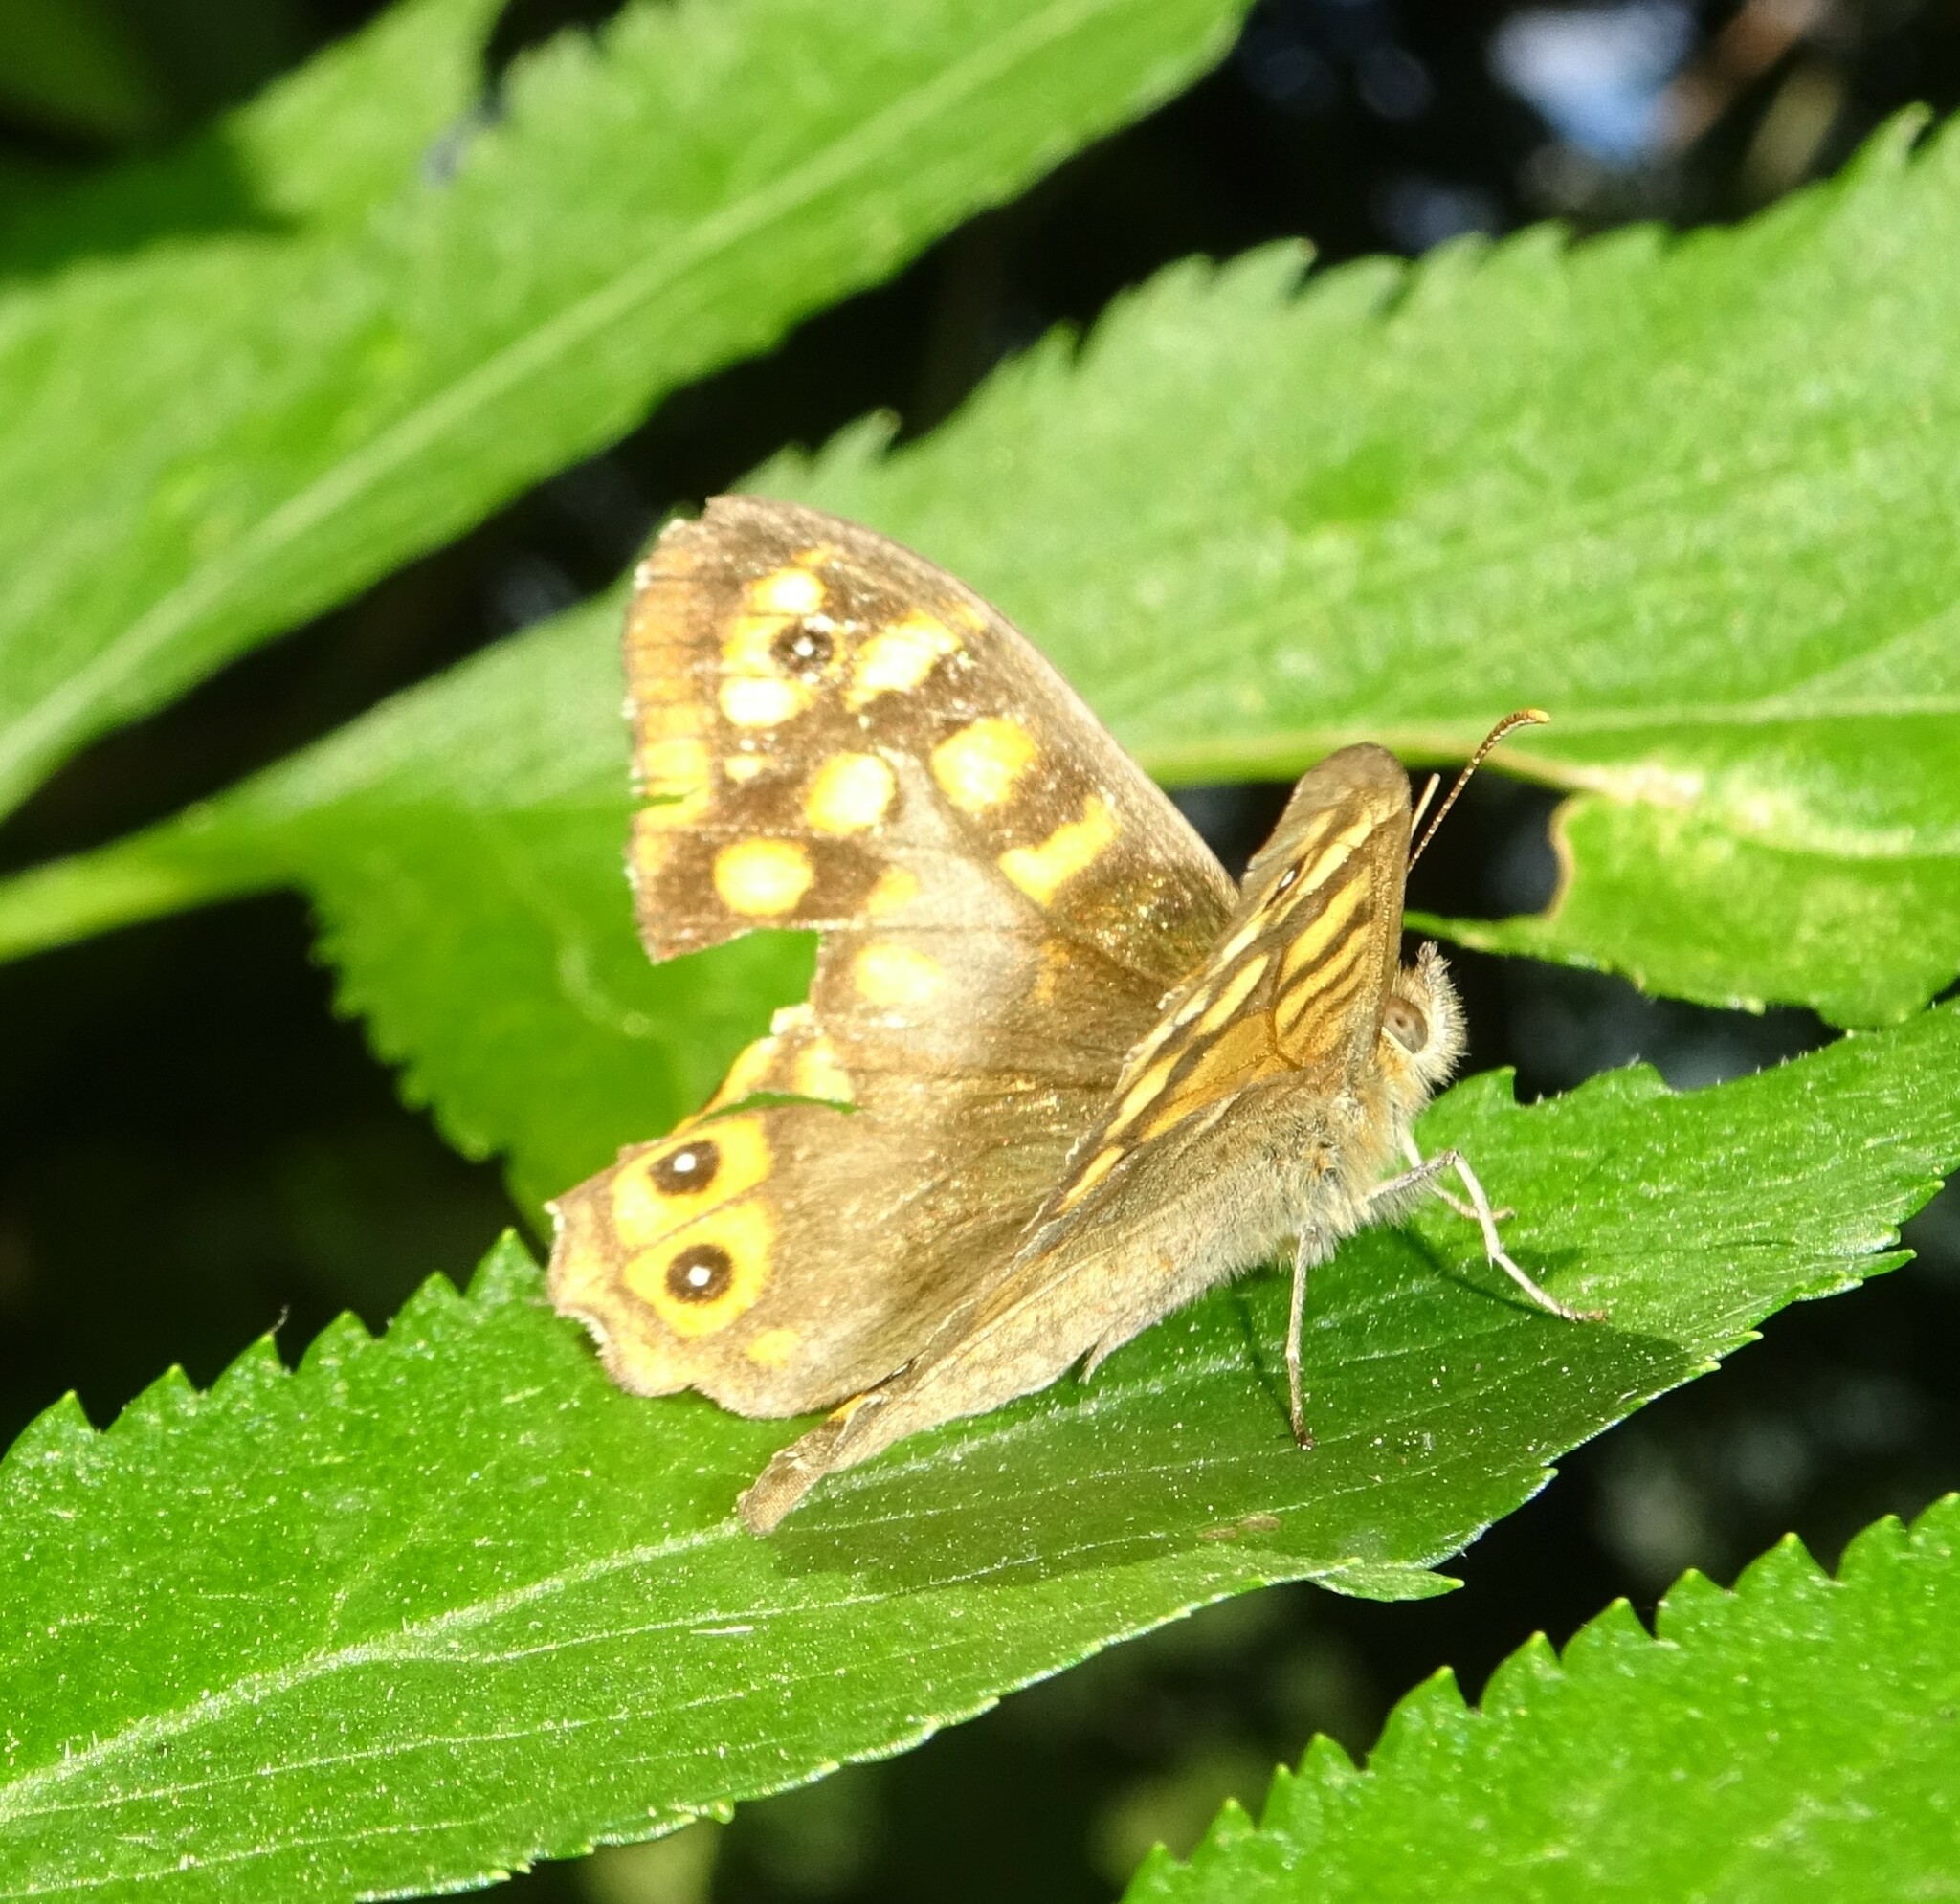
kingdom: Animalia
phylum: Arthropoda
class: Insecta
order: Lepidoptera
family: Nymphalidae
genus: Pararge
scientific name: Pararge aegeria
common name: Speckled wood
